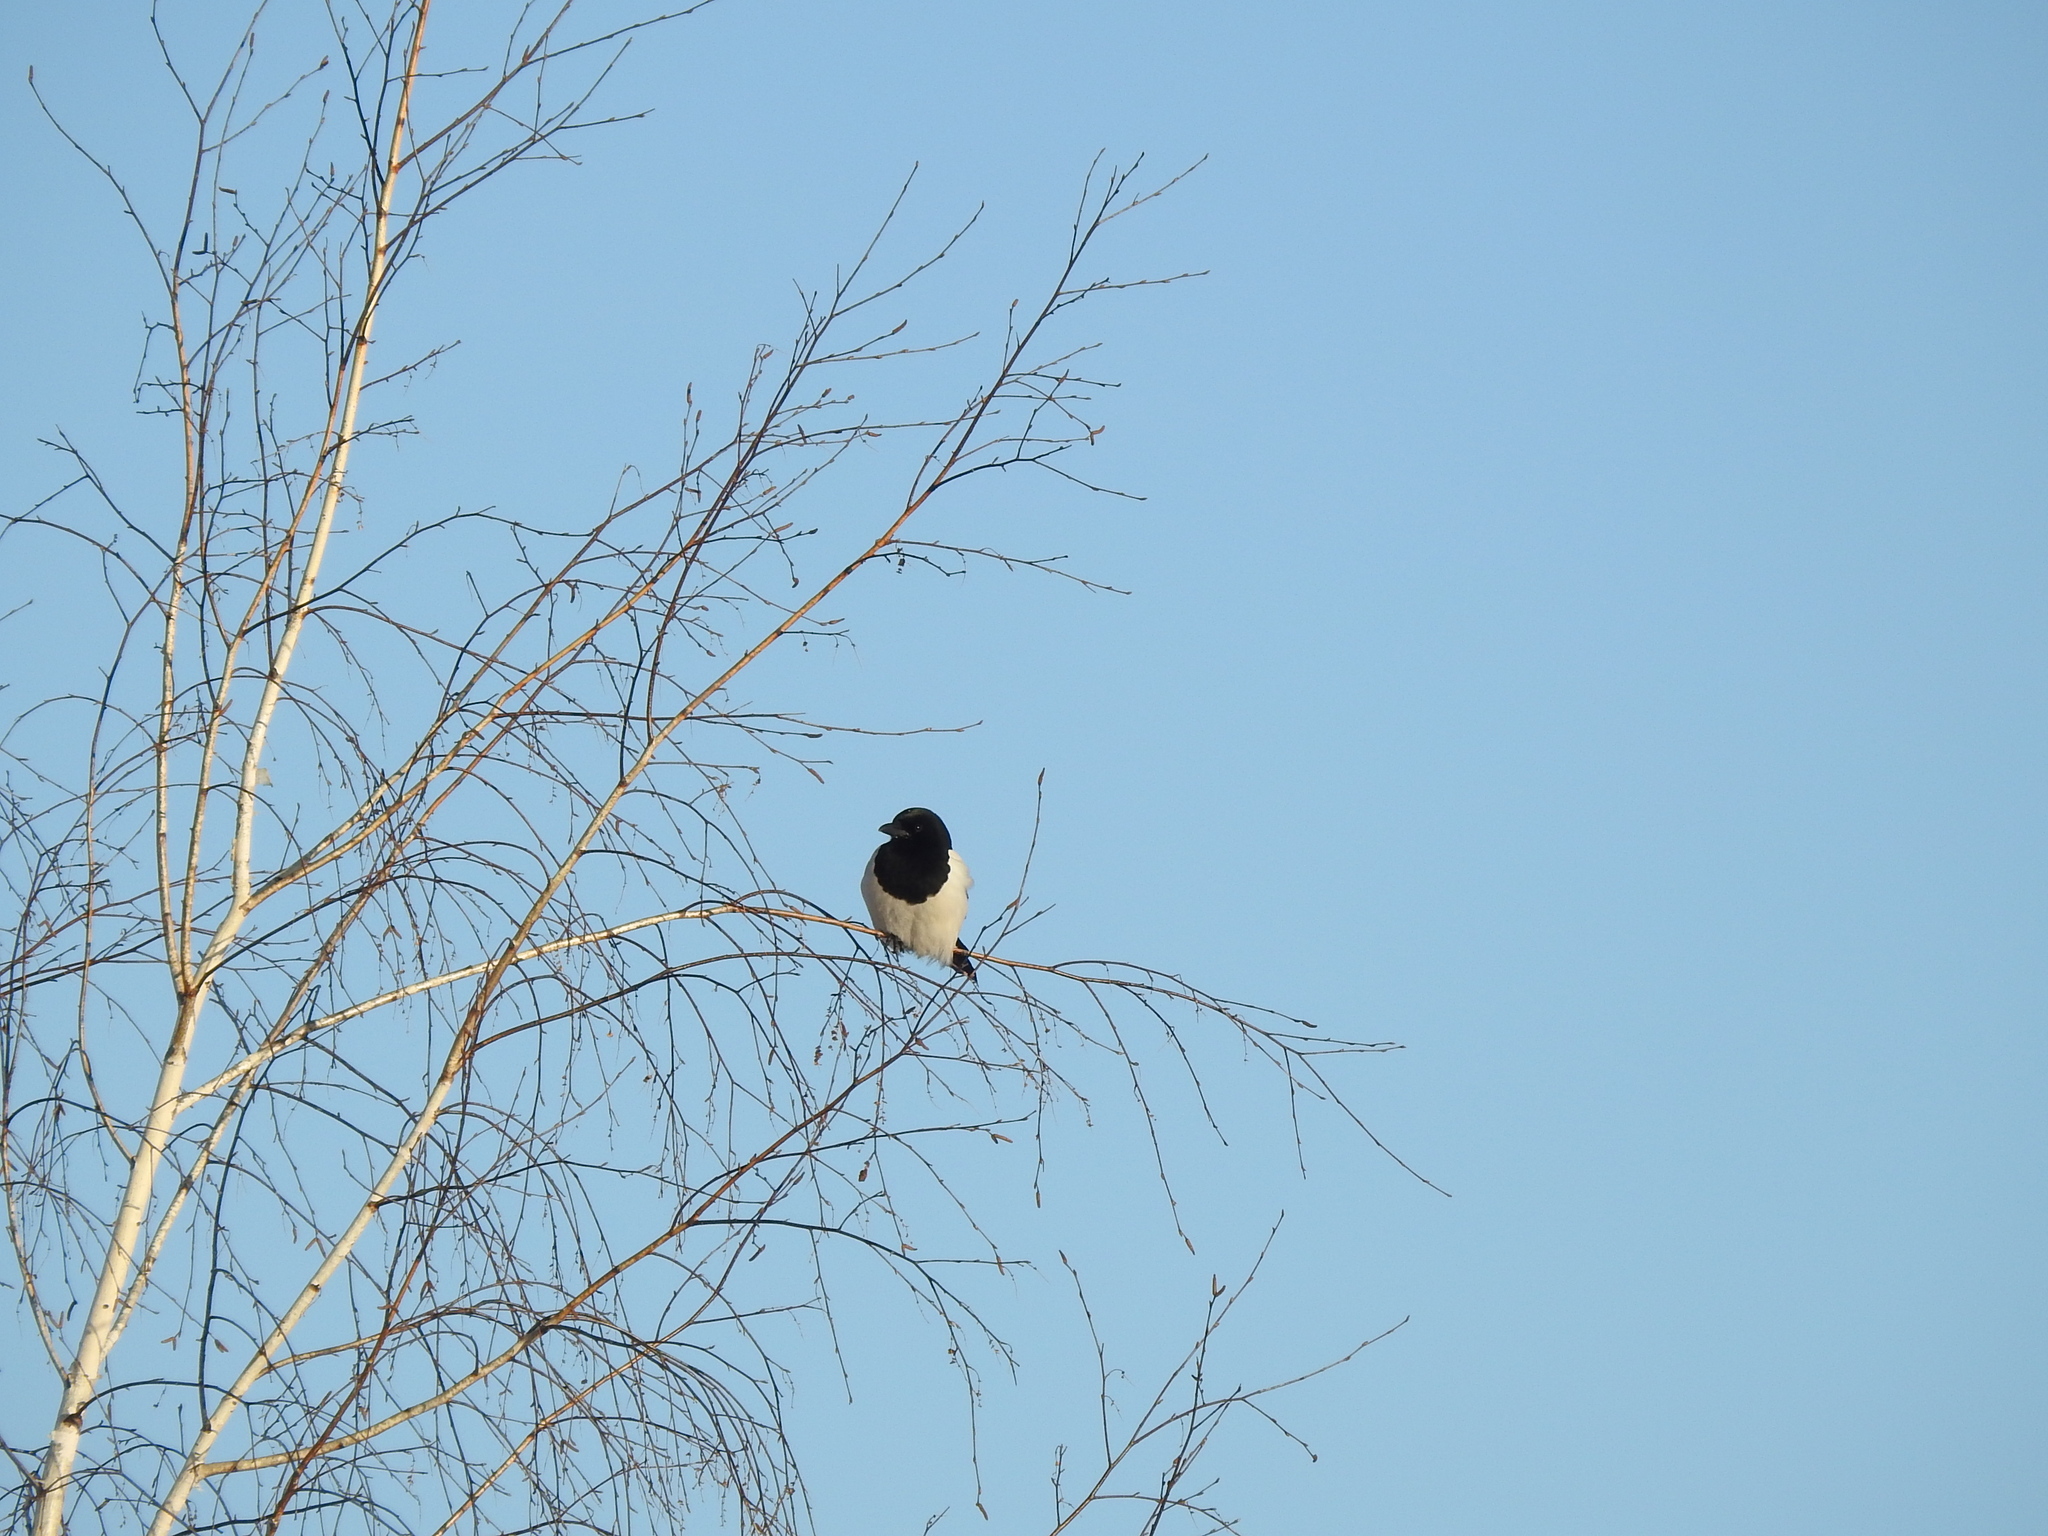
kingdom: Animalia
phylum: Chordata
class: Aves
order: Passeriformes
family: Corvidae
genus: Pica
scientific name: Pica pica
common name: Eurasian magpie
